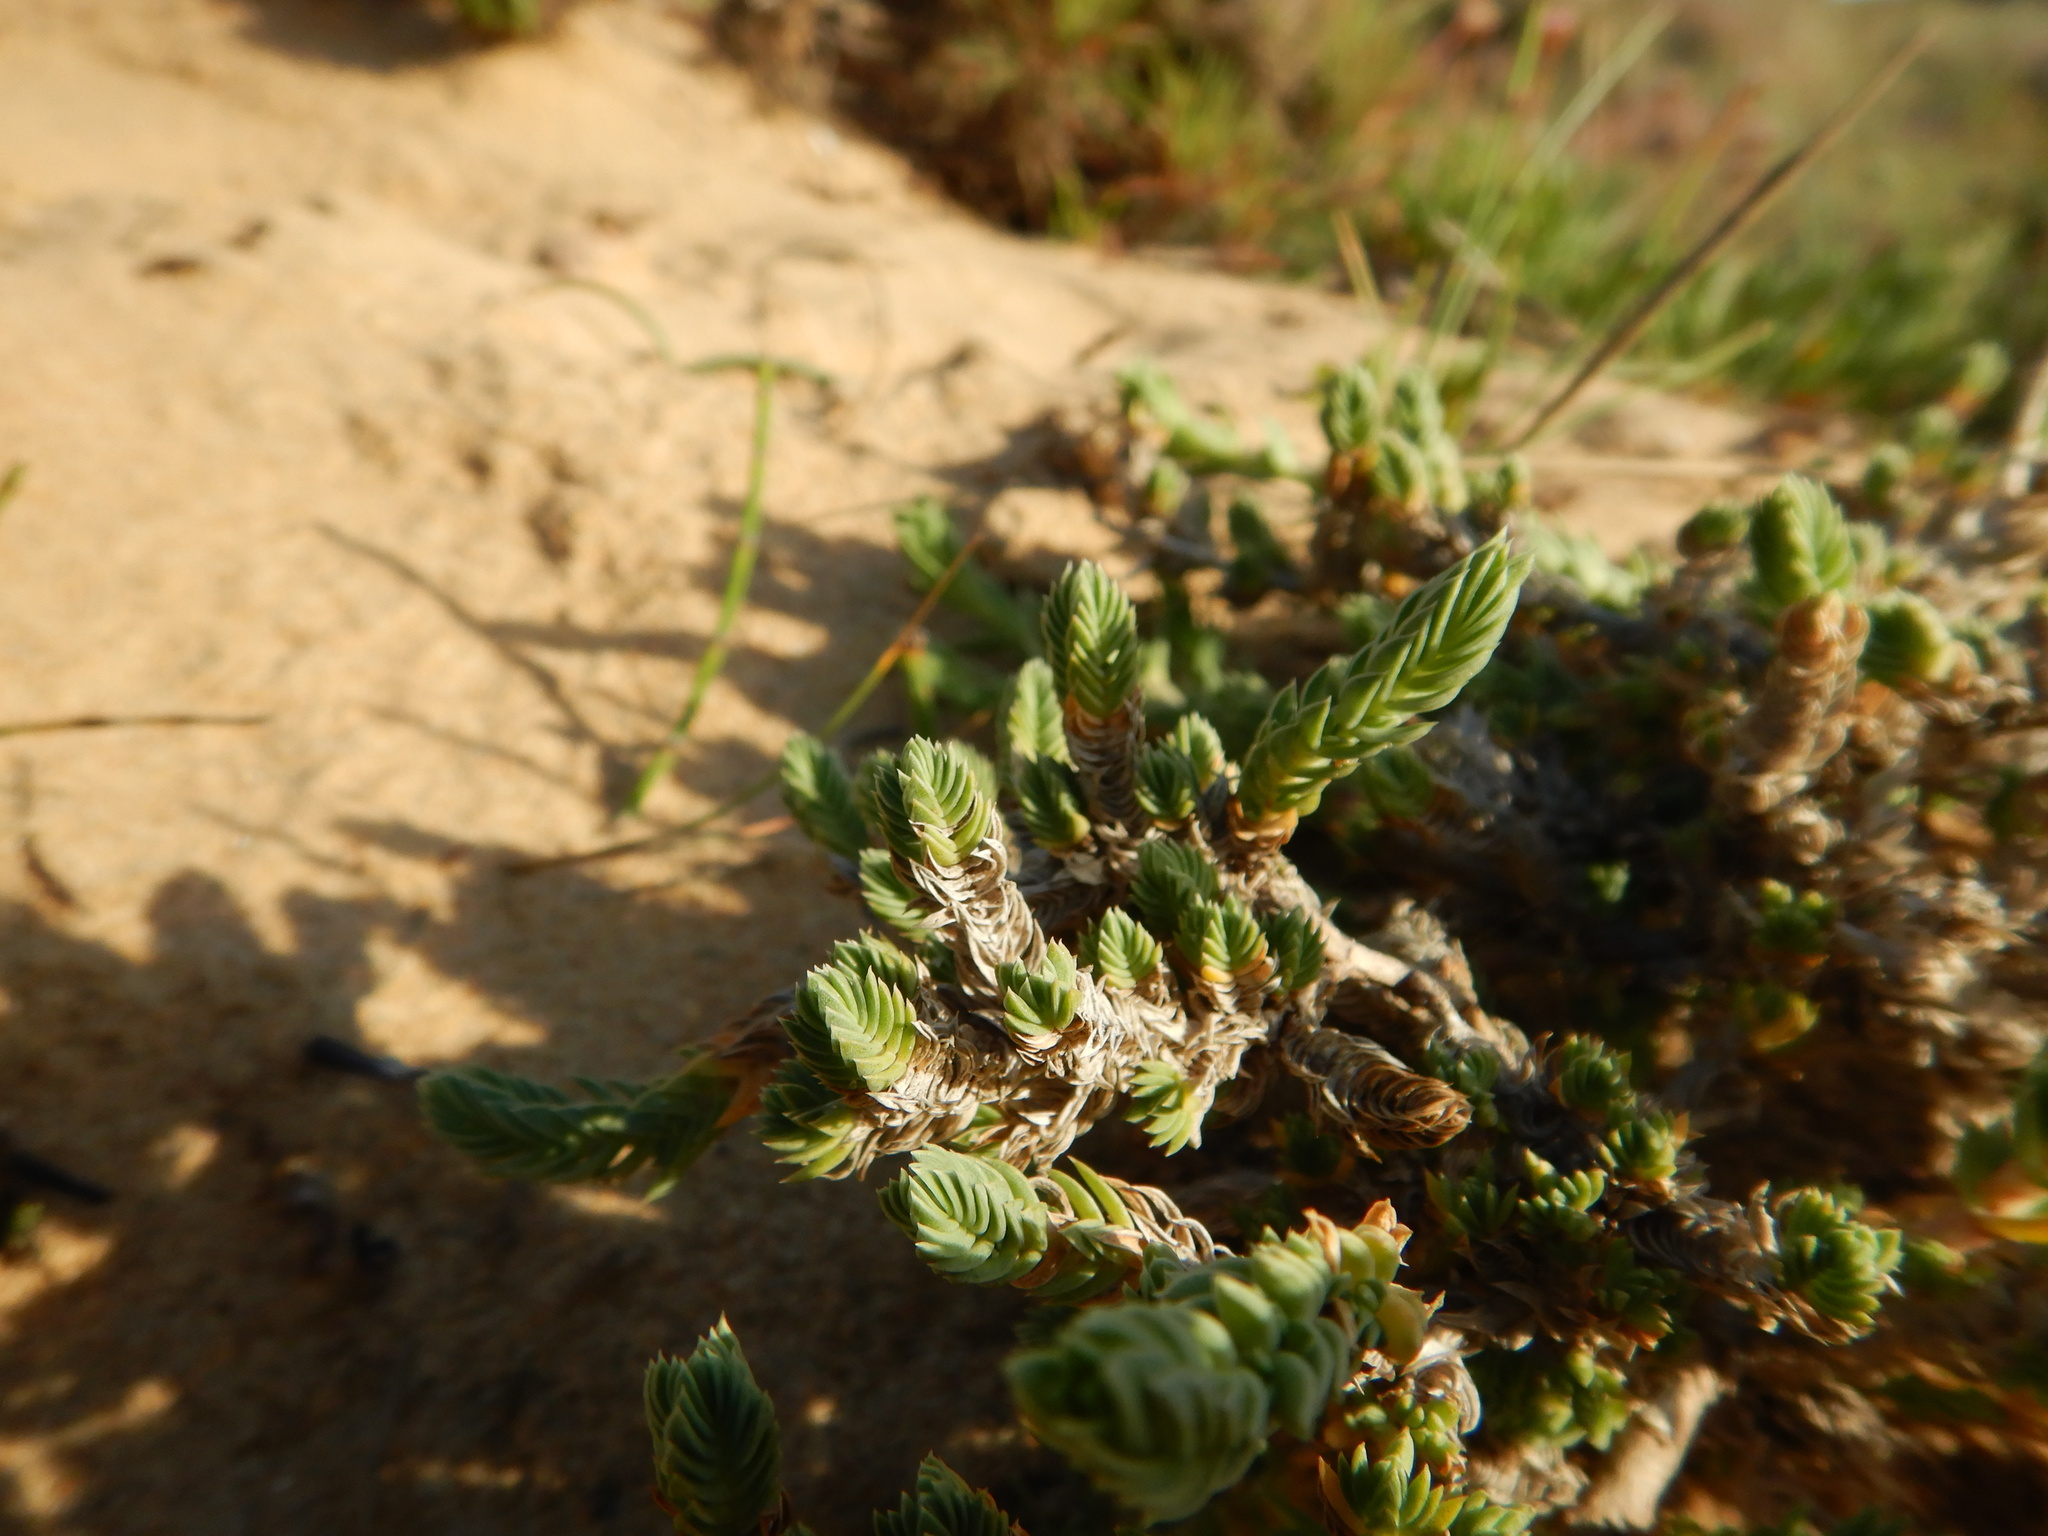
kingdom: Plantae
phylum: Tracheophyta
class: Magnoliopsida
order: Gentianales
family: Rubiaceae
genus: Crucianella
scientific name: Crucianella maritima
